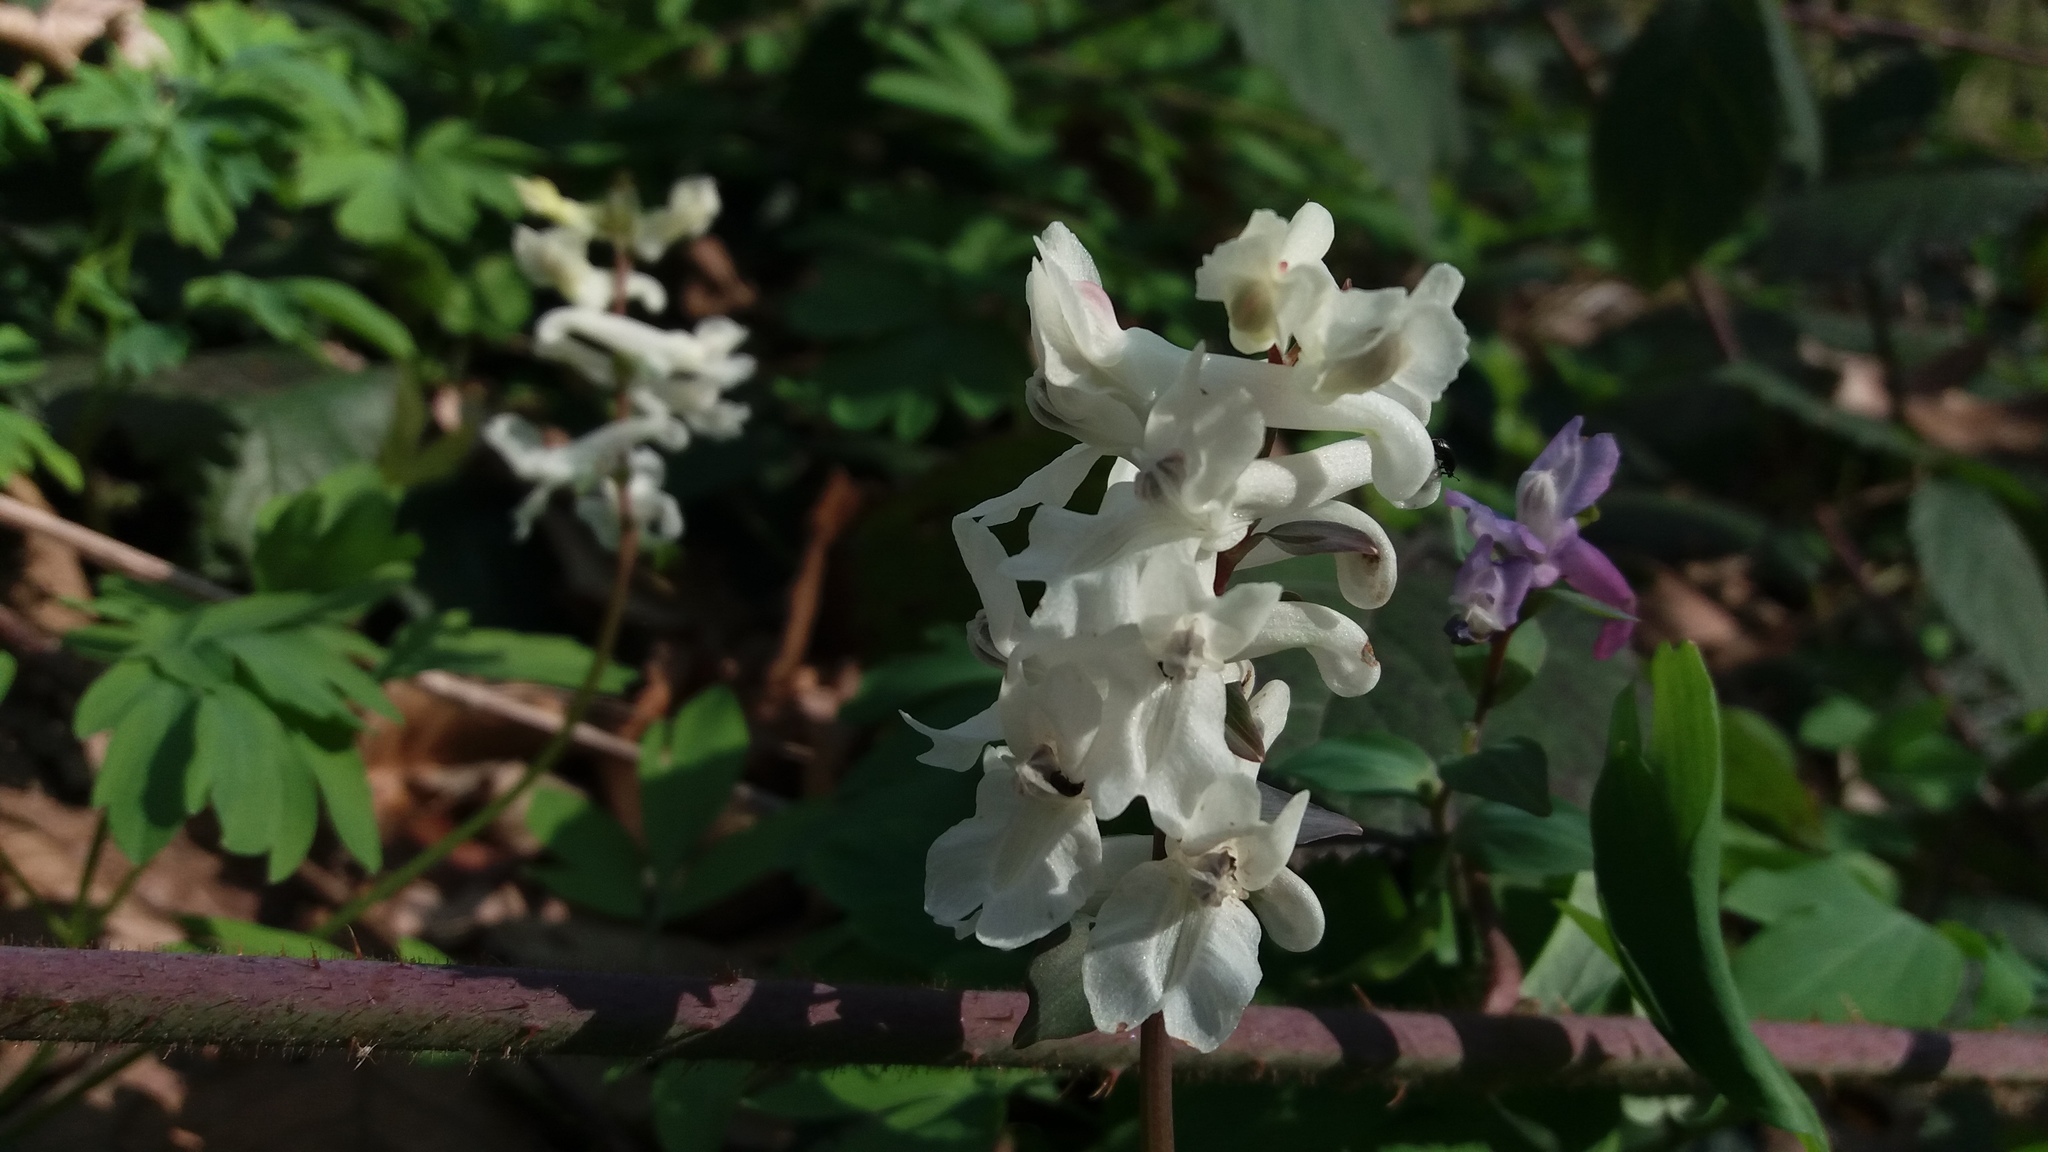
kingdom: Plantae
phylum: Tracheophyta
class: Magnoliopsida
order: Ranunculales
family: Papaveraceae
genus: Corydalis
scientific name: Corydalis cava
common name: Hollowroot
